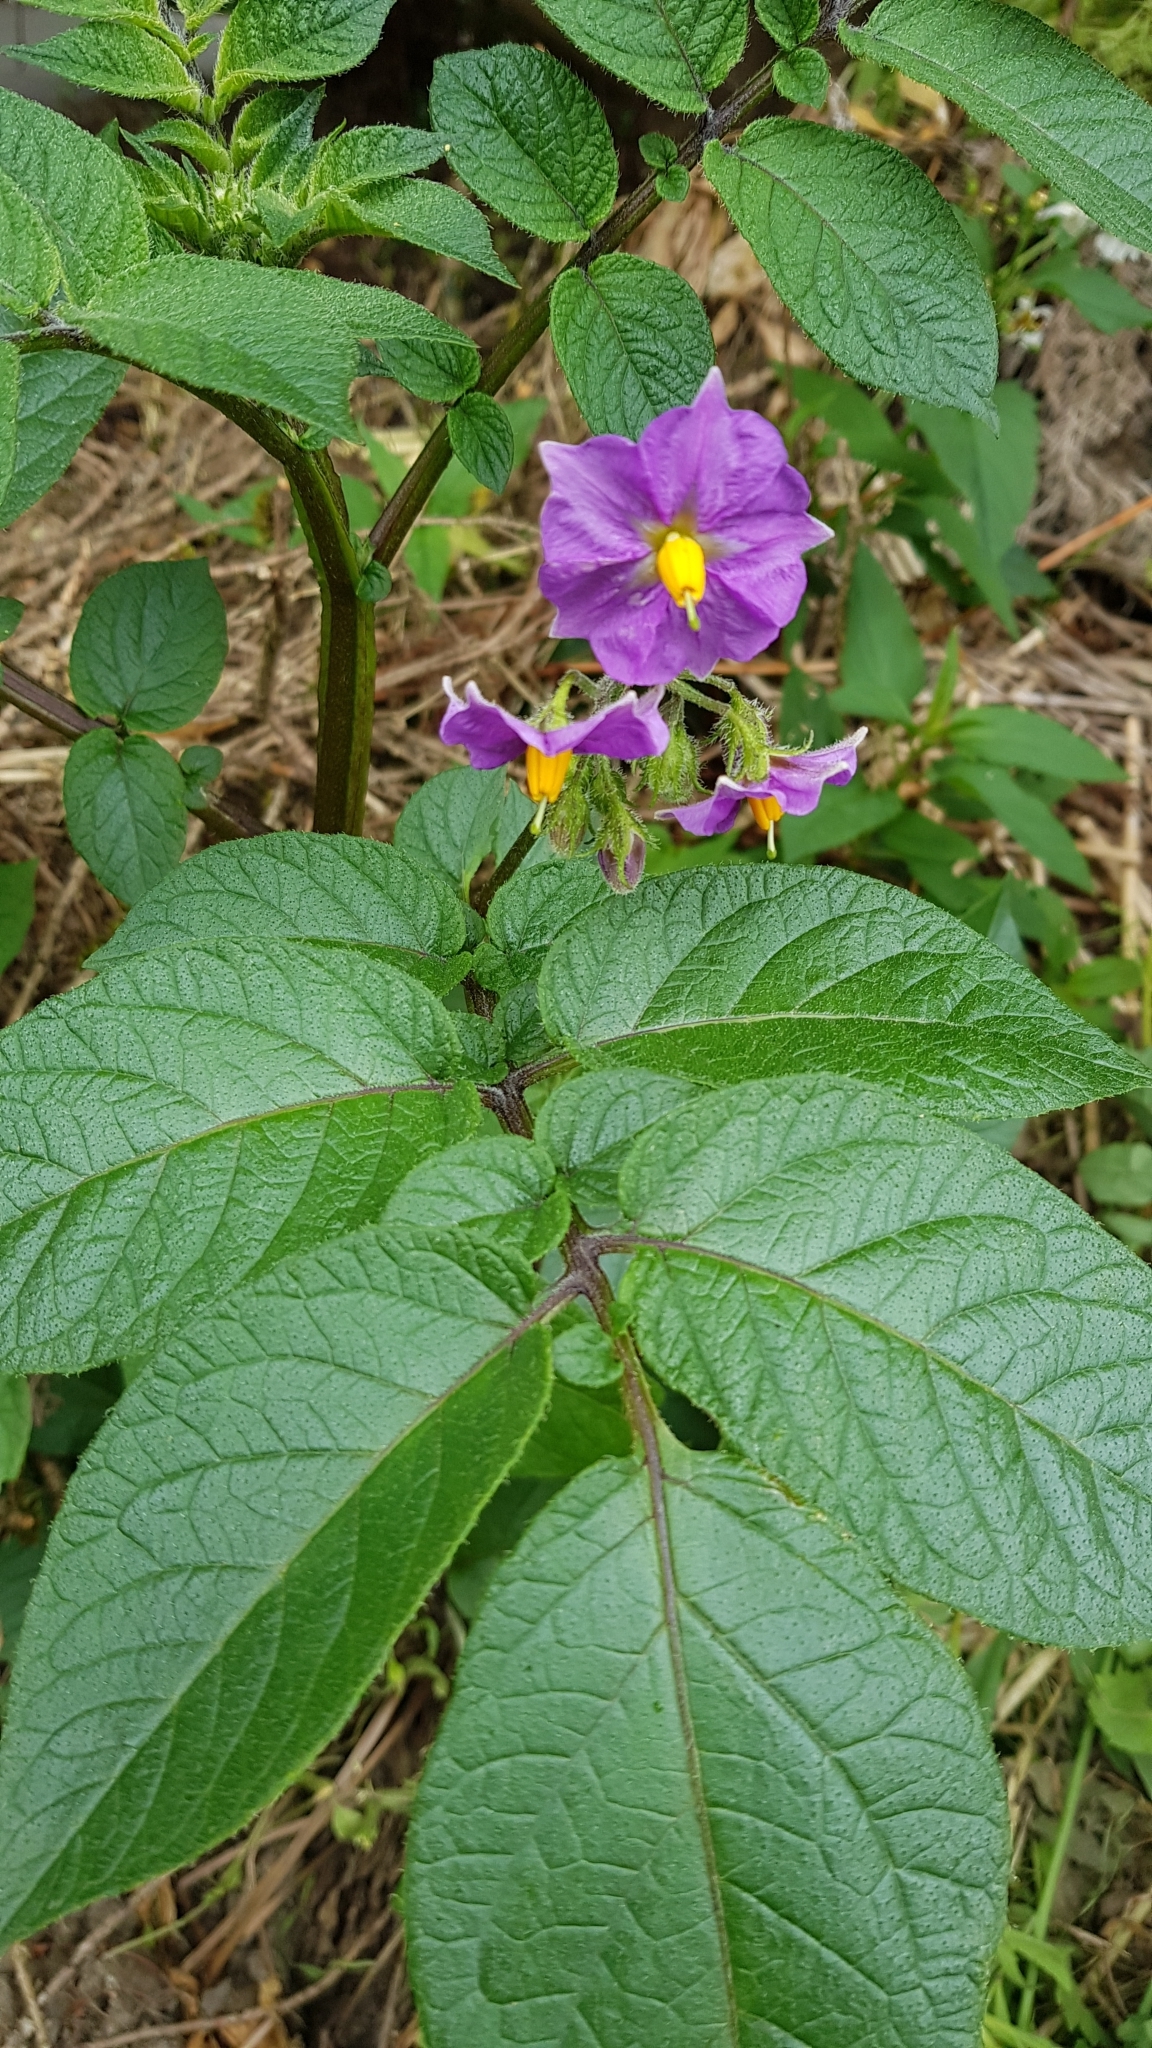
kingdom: Plantae
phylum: Tracheophyta
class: Magnoliopsida
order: Solanales
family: Solanaceae
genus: Solanum
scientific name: Solanum tuberosum
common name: Potato
